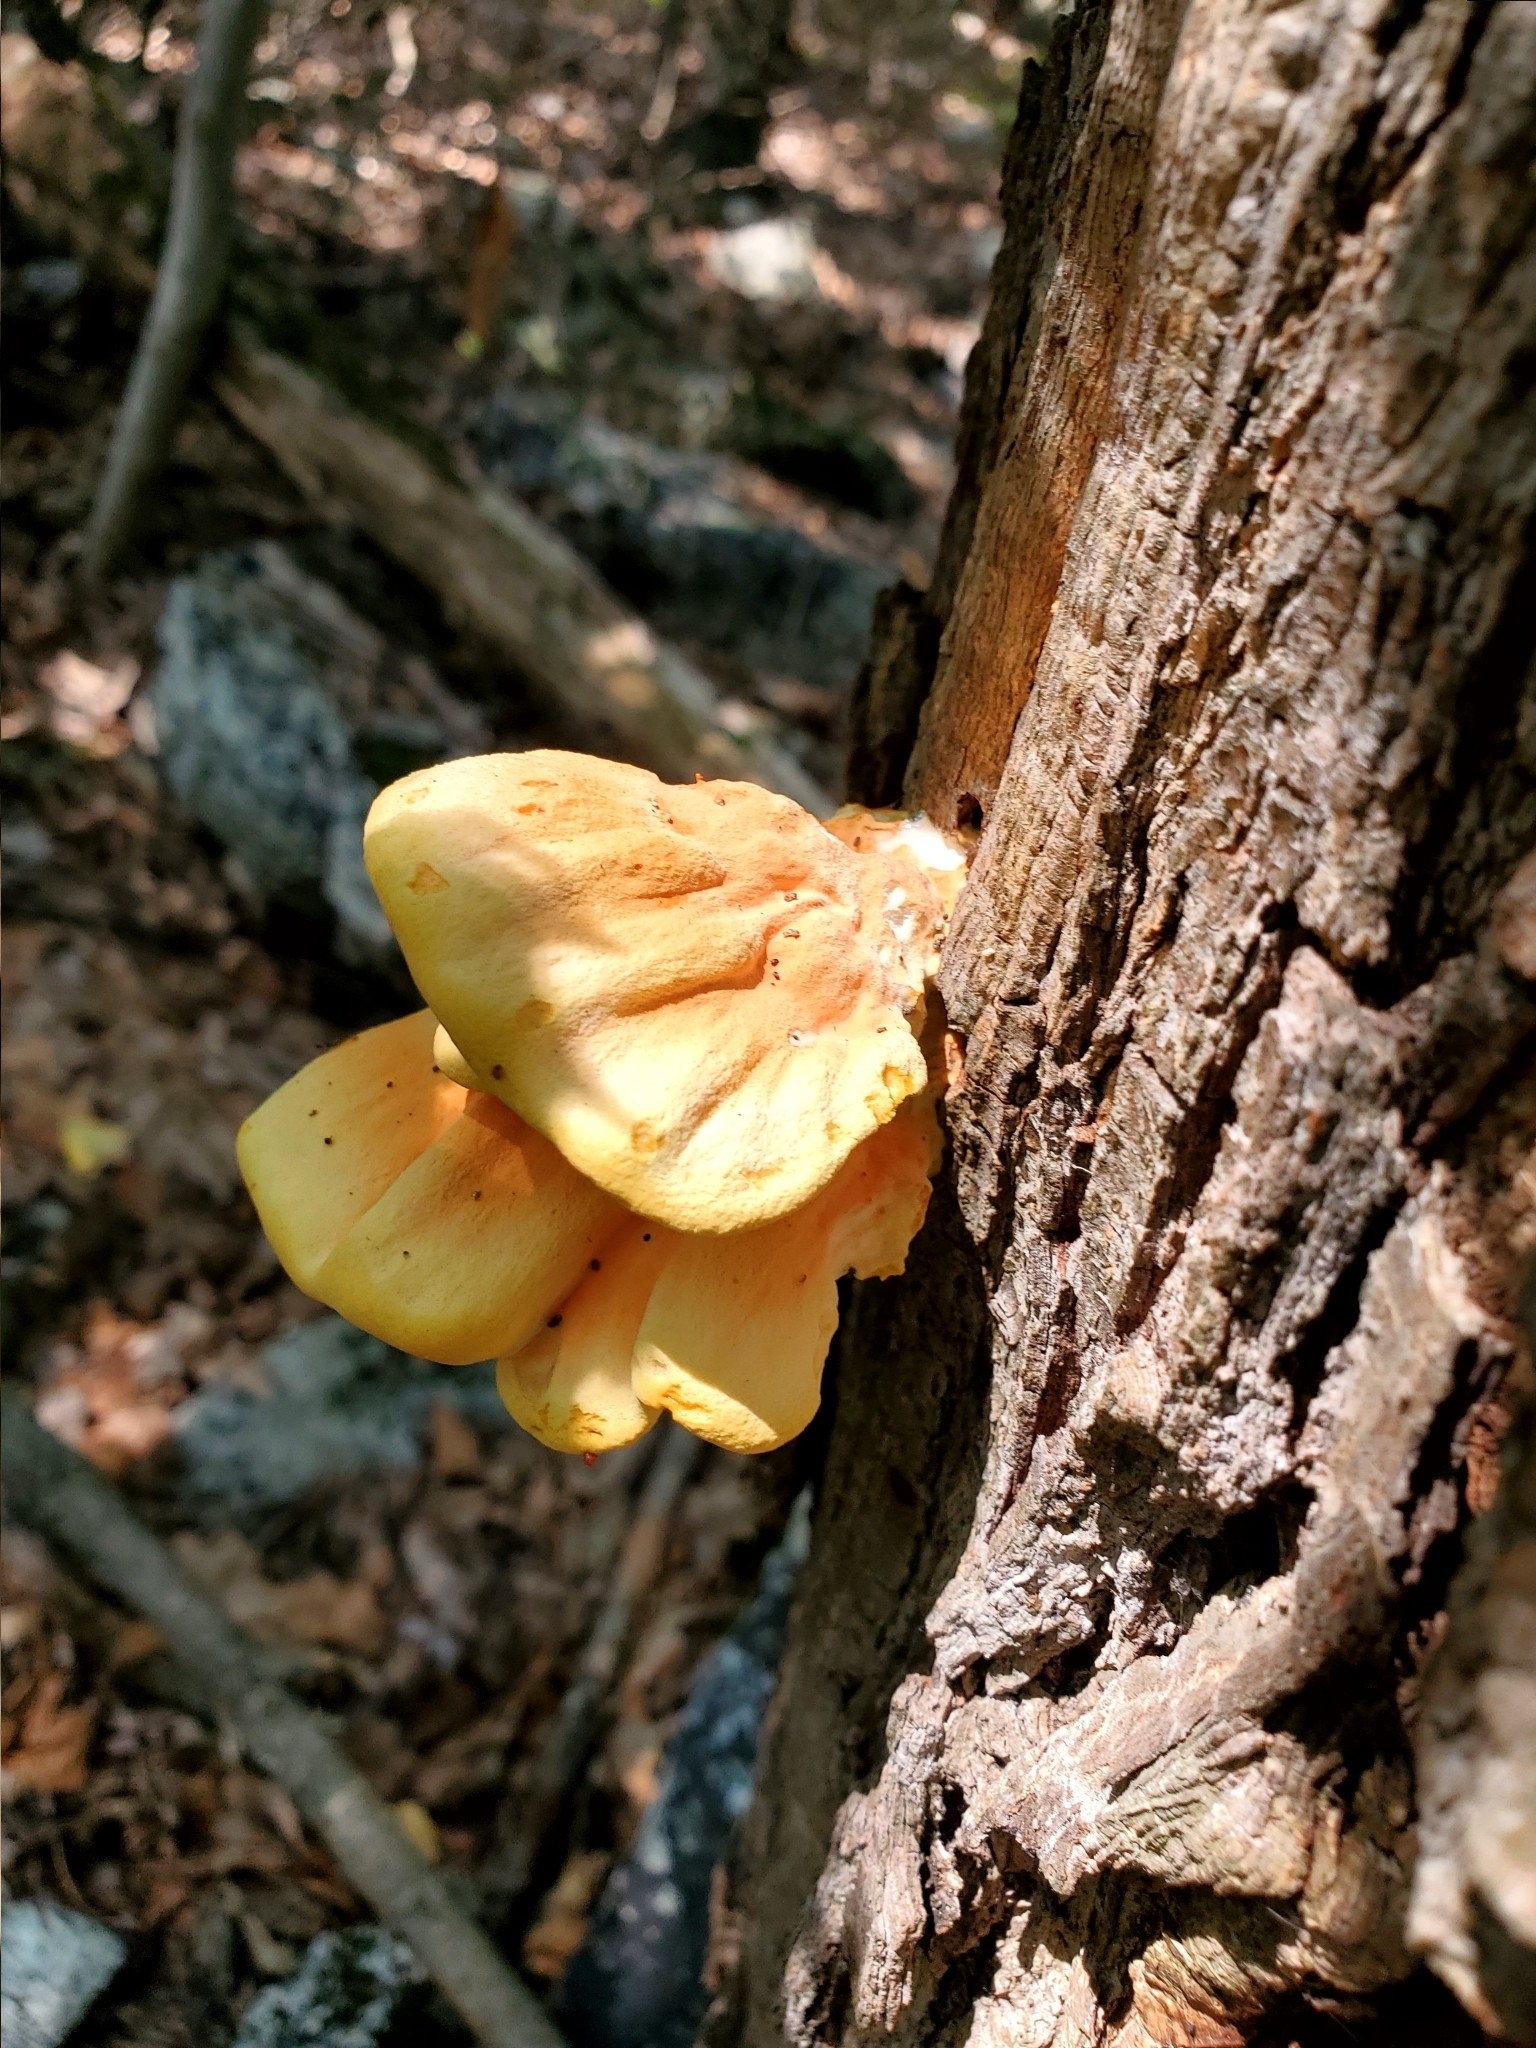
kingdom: Fungi
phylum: Basidiomycota
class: Agaricomycetes
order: Polyporales
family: Laetiporaceae
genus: Laetiporus
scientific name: Laetiporus sulphureus
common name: Chicken of the woods
